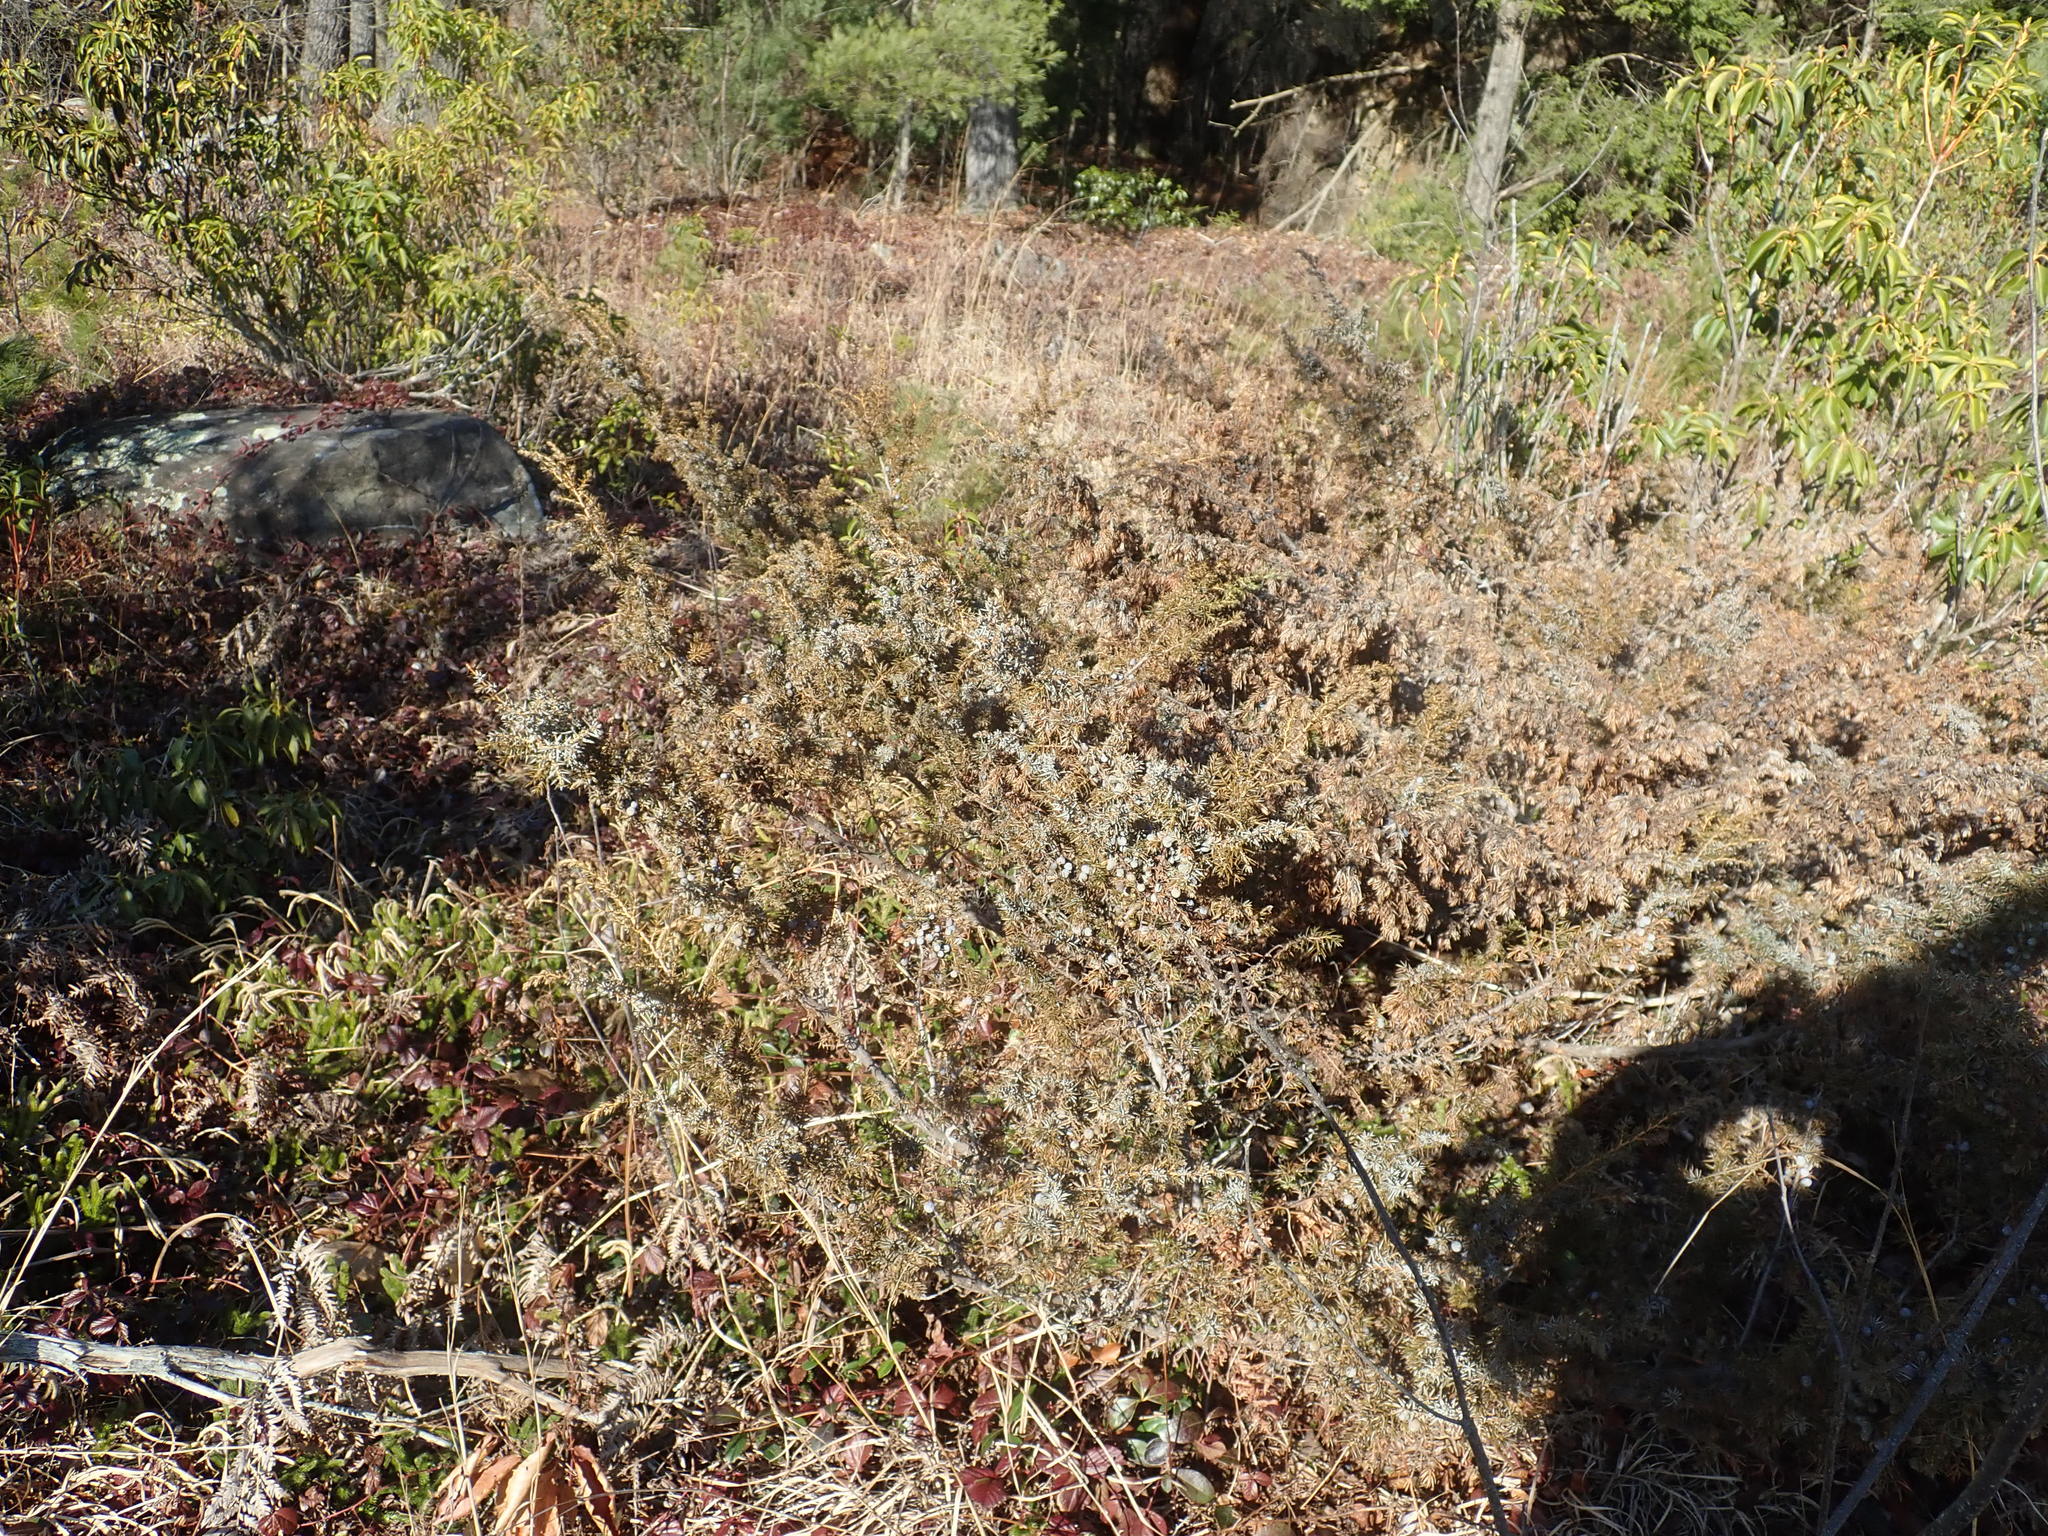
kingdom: Plantae
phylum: Tracheophyta
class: Pinopsida
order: Pinales
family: Cupressaceae
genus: Juniperus
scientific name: Juniperus communis
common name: Common juniper
